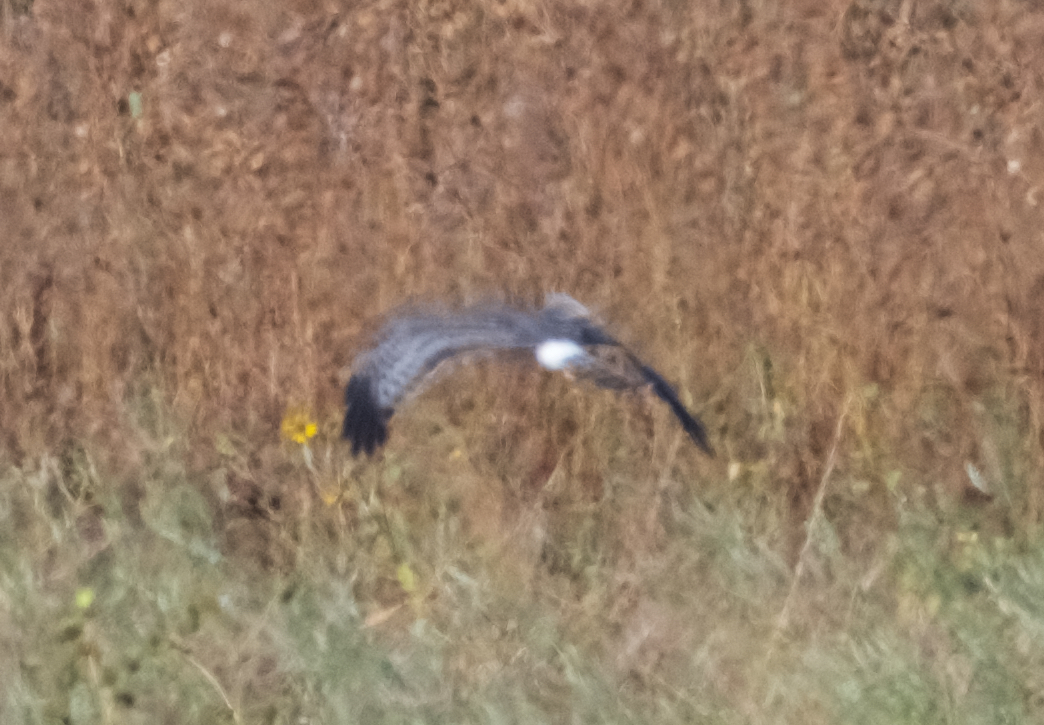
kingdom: Animalia
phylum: Chordata
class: Aves
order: Accipitriformes
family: Accipitridae
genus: Circus
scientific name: Circus cyaneus
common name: Hen harrier
